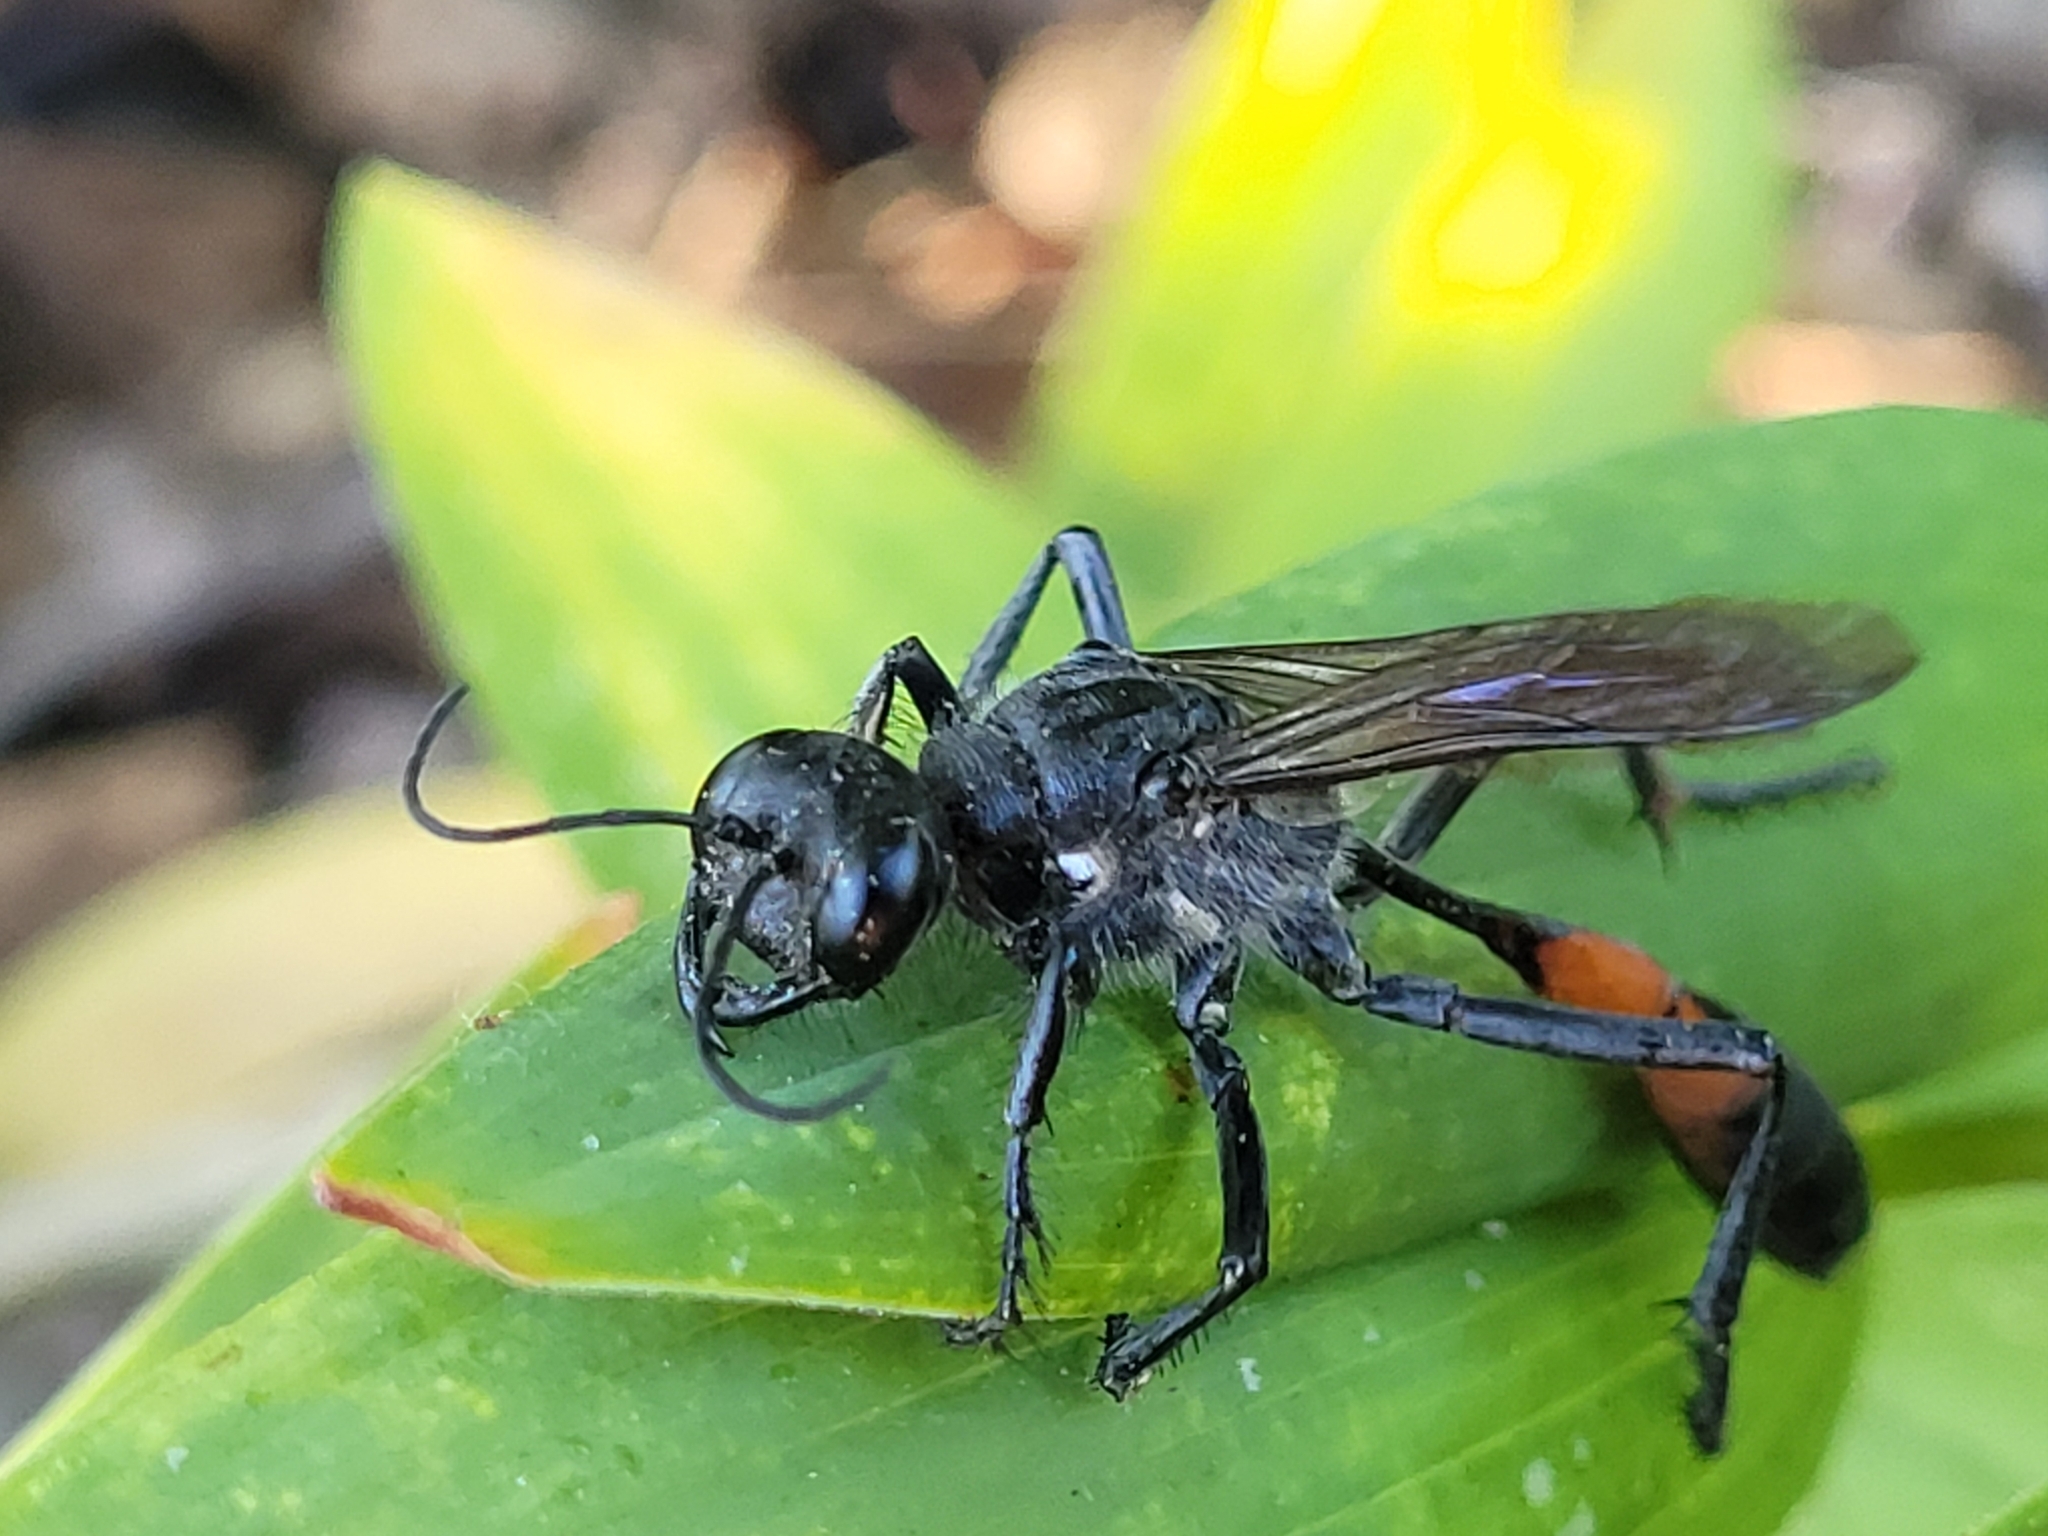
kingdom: Animalia
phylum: Arthropoda
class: Insecta
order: Hymenoptera
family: Sphecidae
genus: Ammophila
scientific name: Ammophila macra
